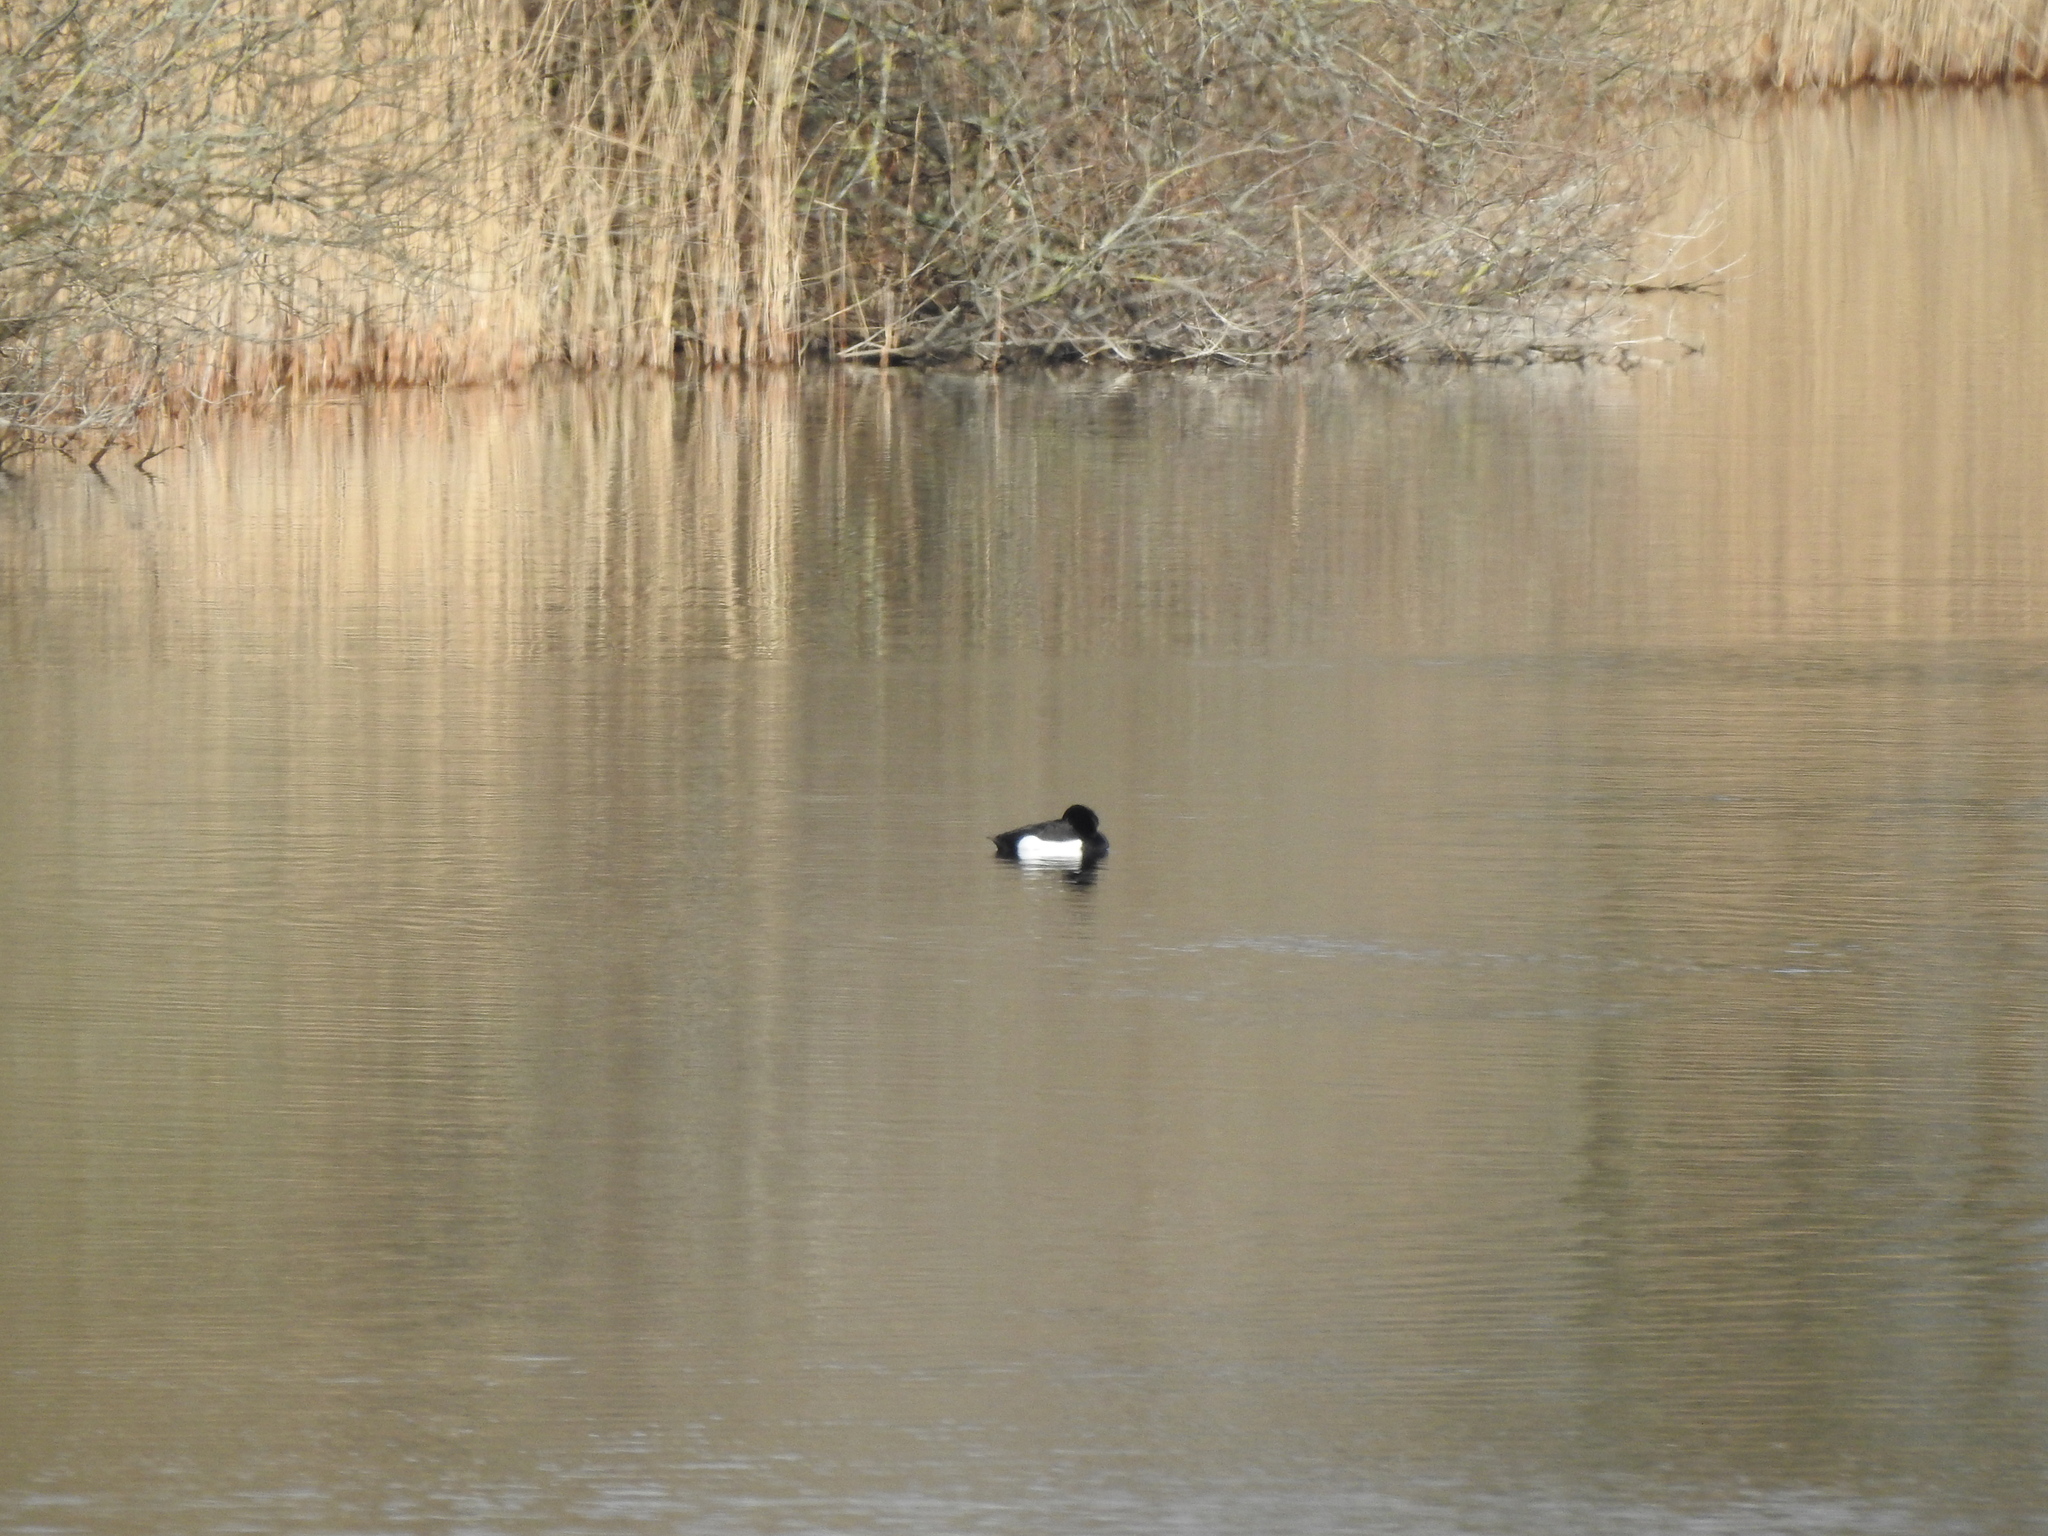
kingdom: Animalia
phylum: Chordata
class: Aves
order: Anseriformes
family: Anatidae
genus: Aythya
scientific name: Aythya fuligula
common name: Tufted duck
